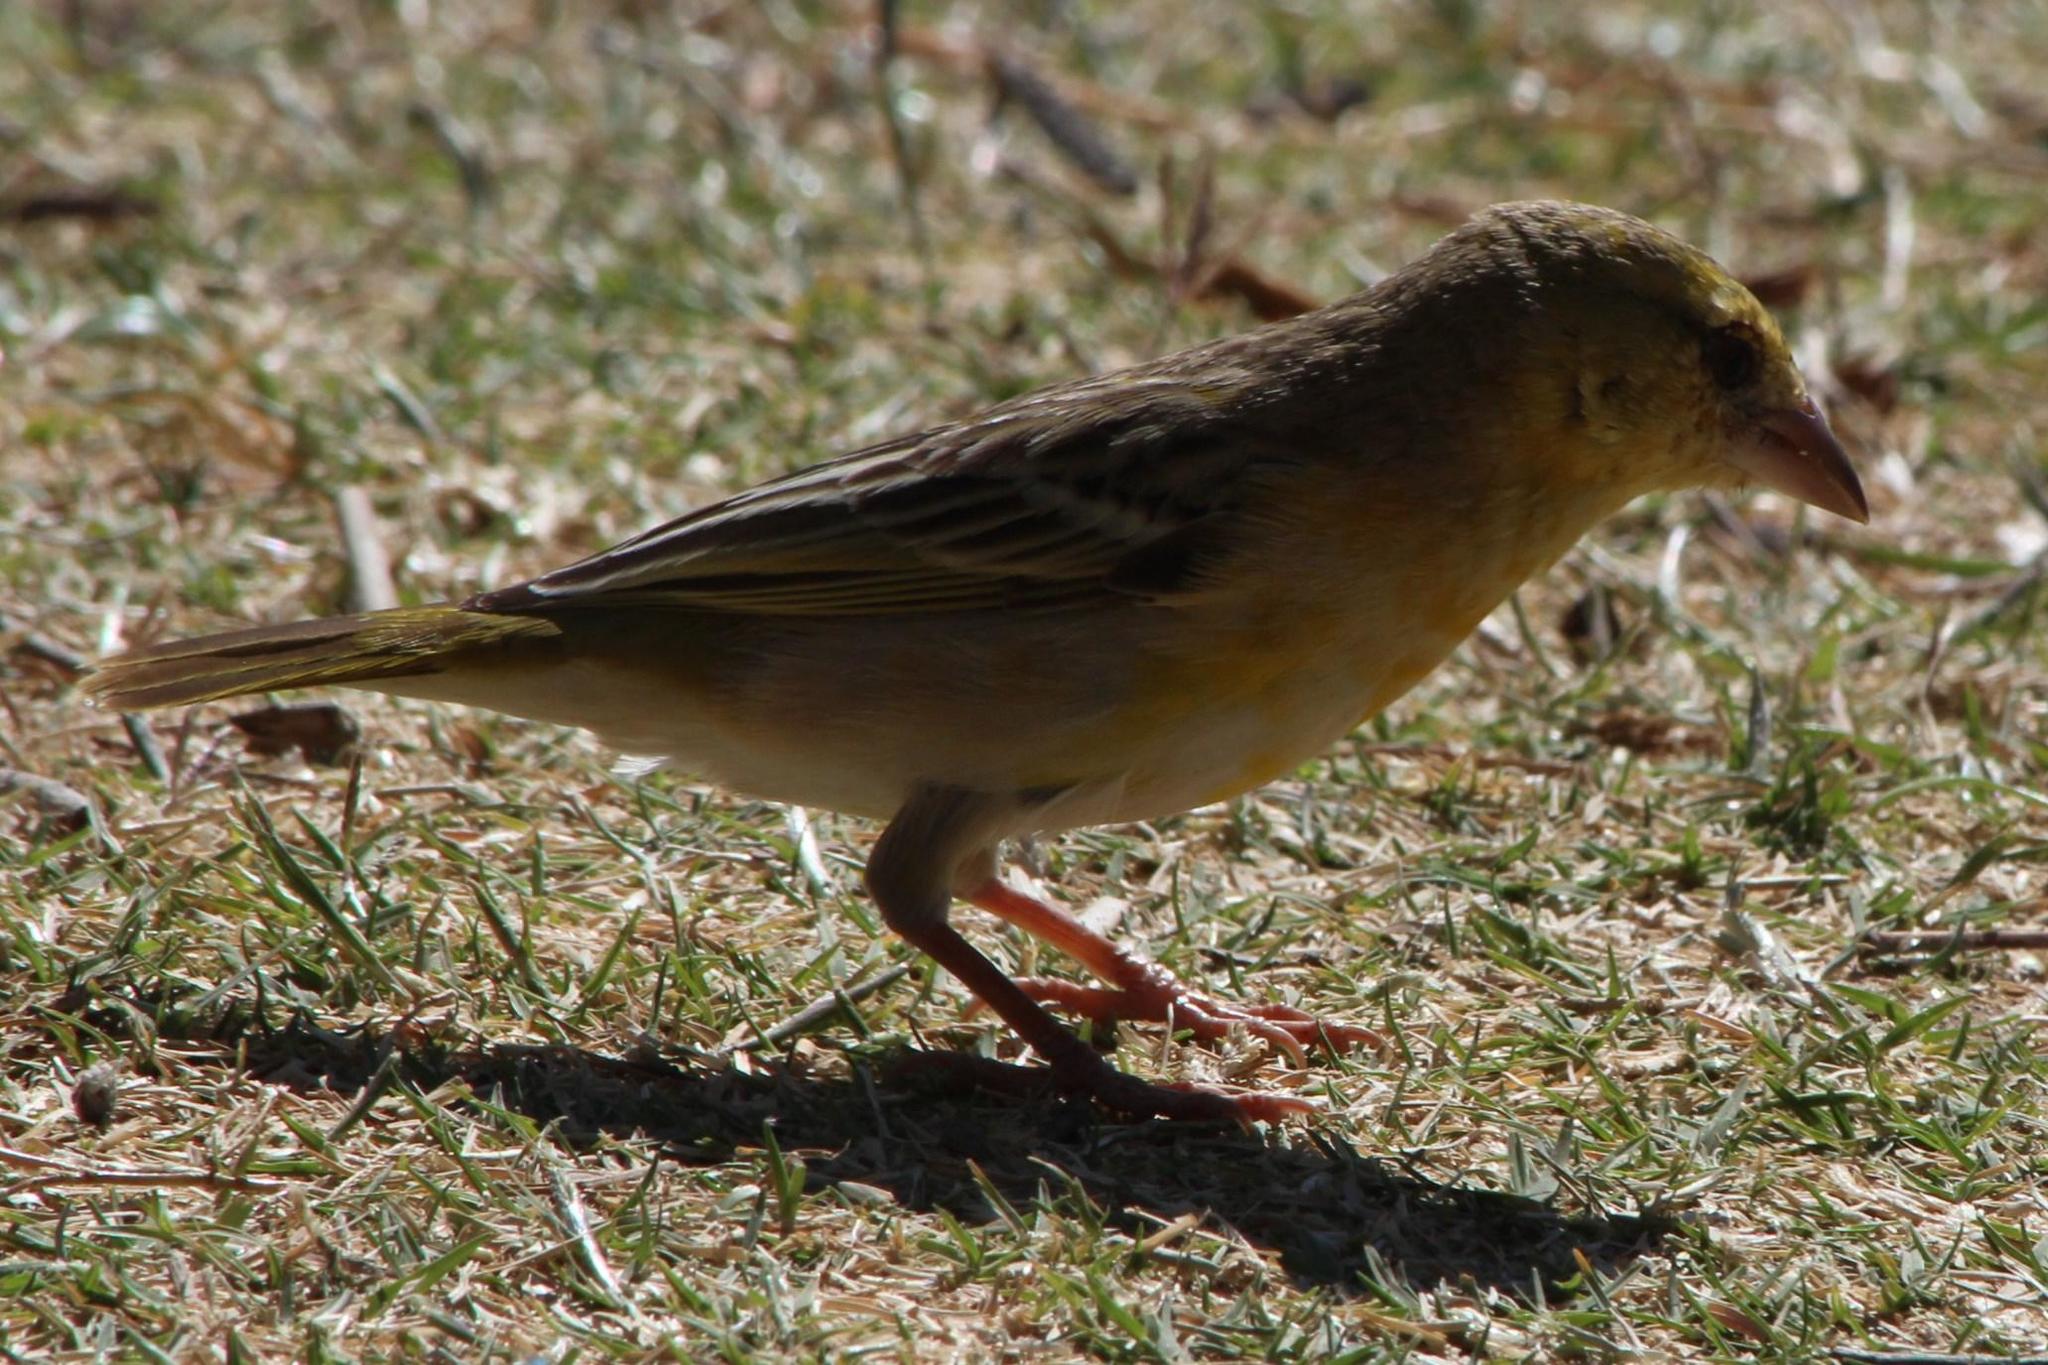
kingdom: Animalia
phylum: Chordata
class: Aves
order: Passeriformes
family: Ploceidae
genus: Ploceus
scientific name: Ploceus velatus
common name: Southern masked weaver
